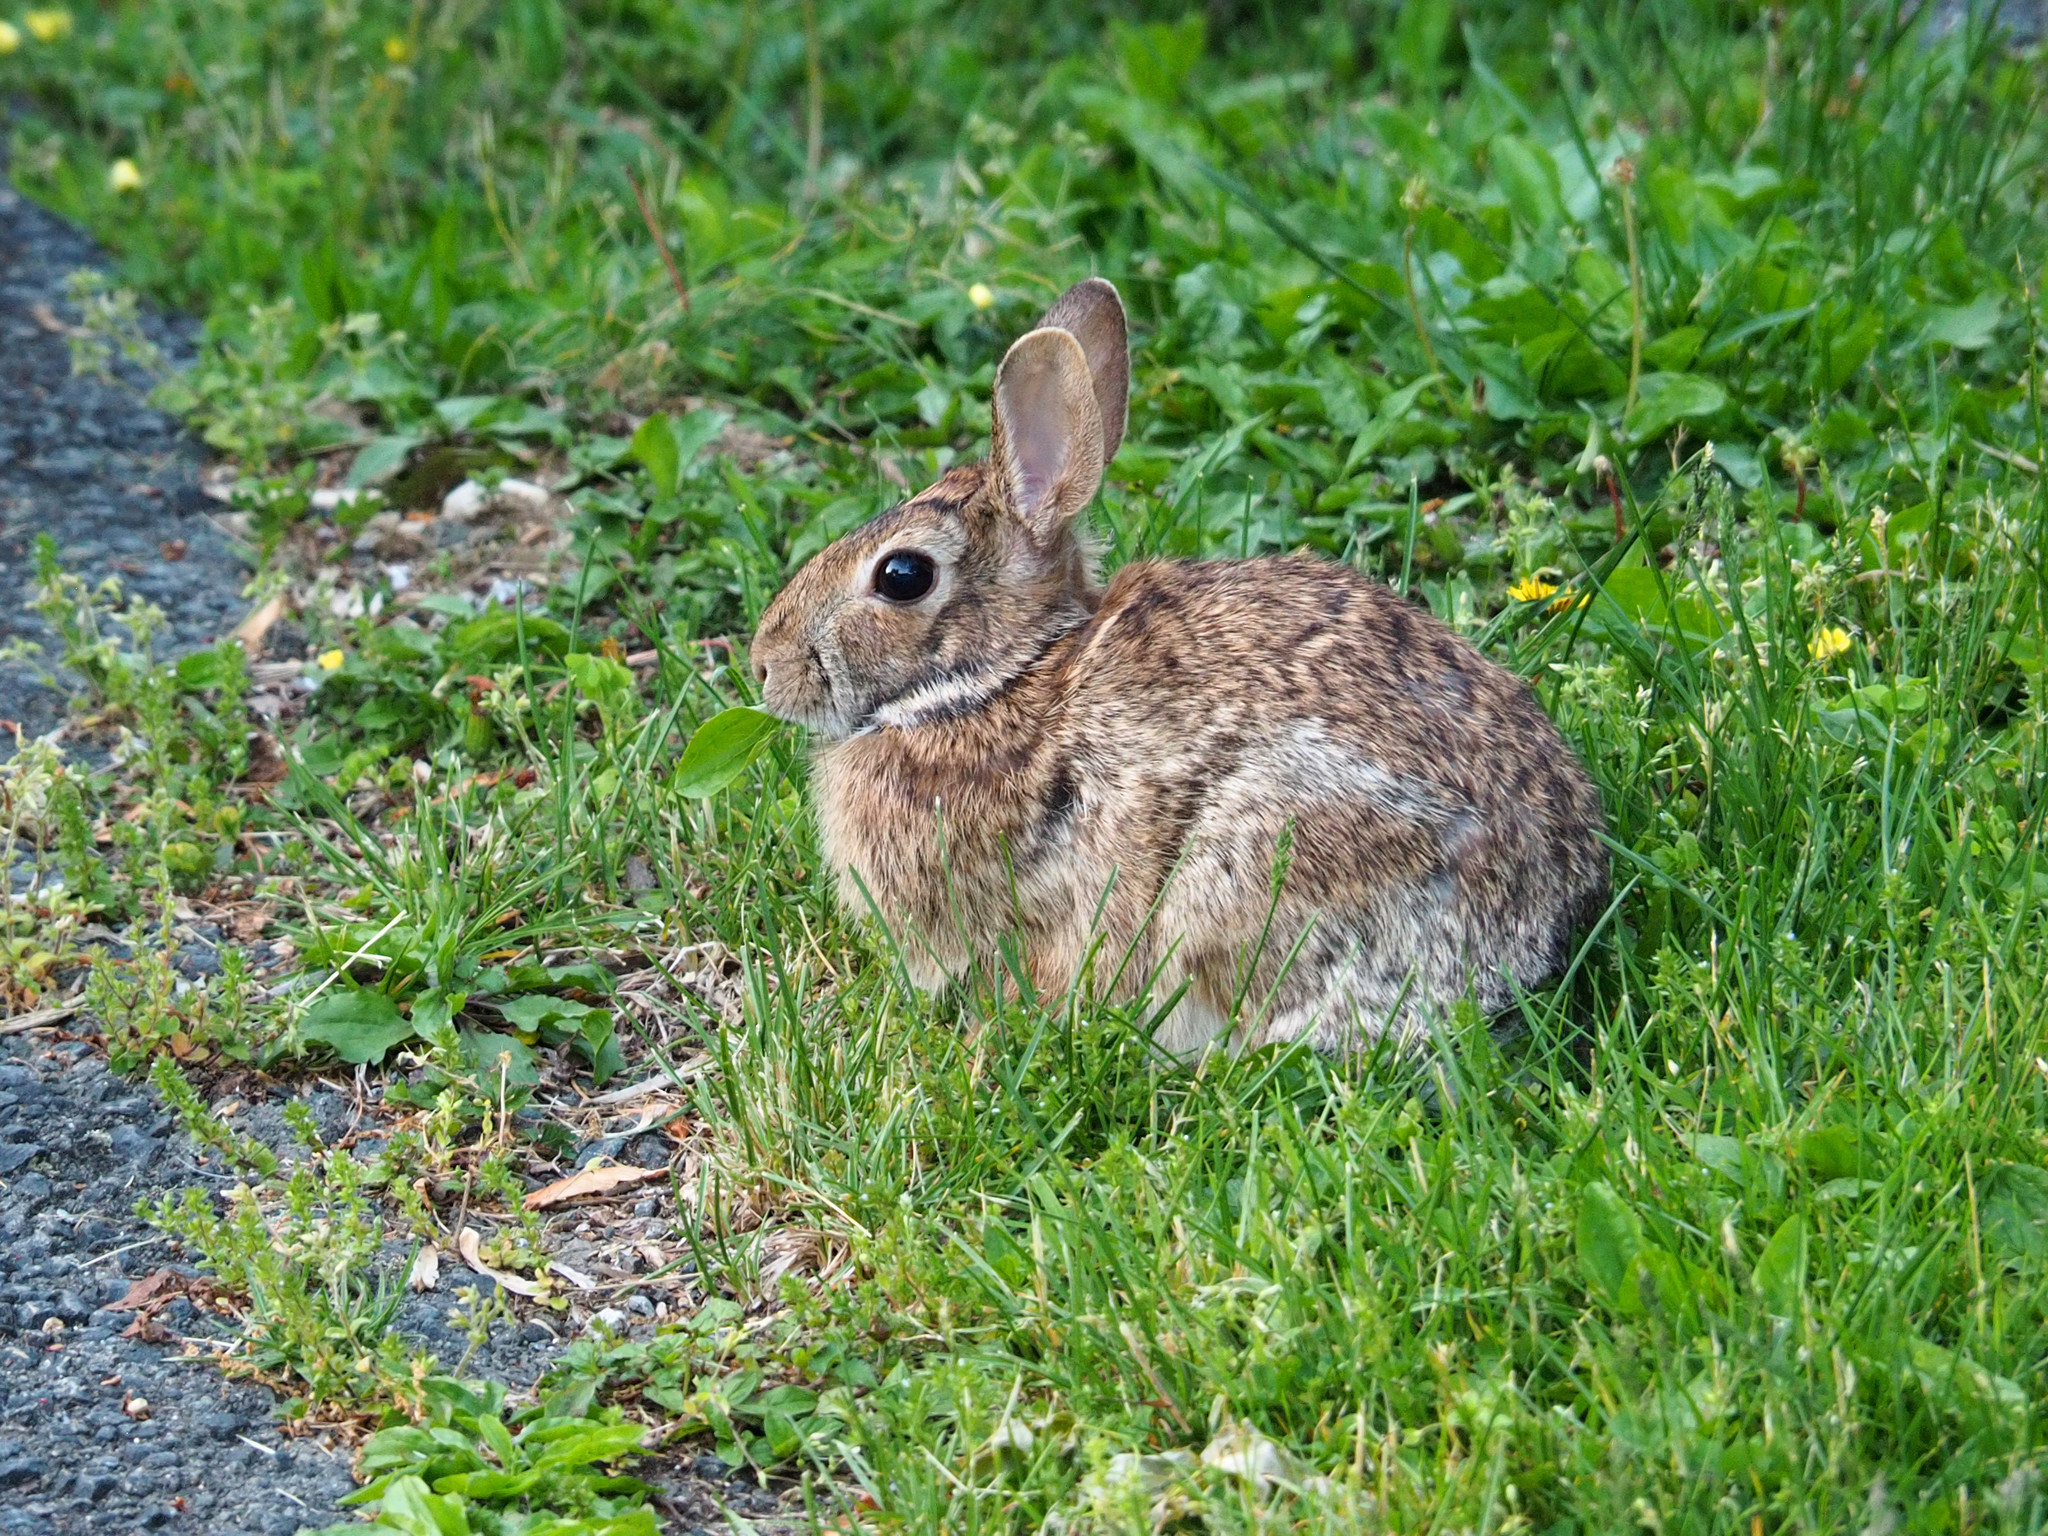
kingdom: Animalia
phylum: Chordata
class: Mammalia
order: Lagomorpha
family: Leporidae
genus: Sylvilagus
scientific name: Sylvilagus floridanus
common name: Eastern cottontail
